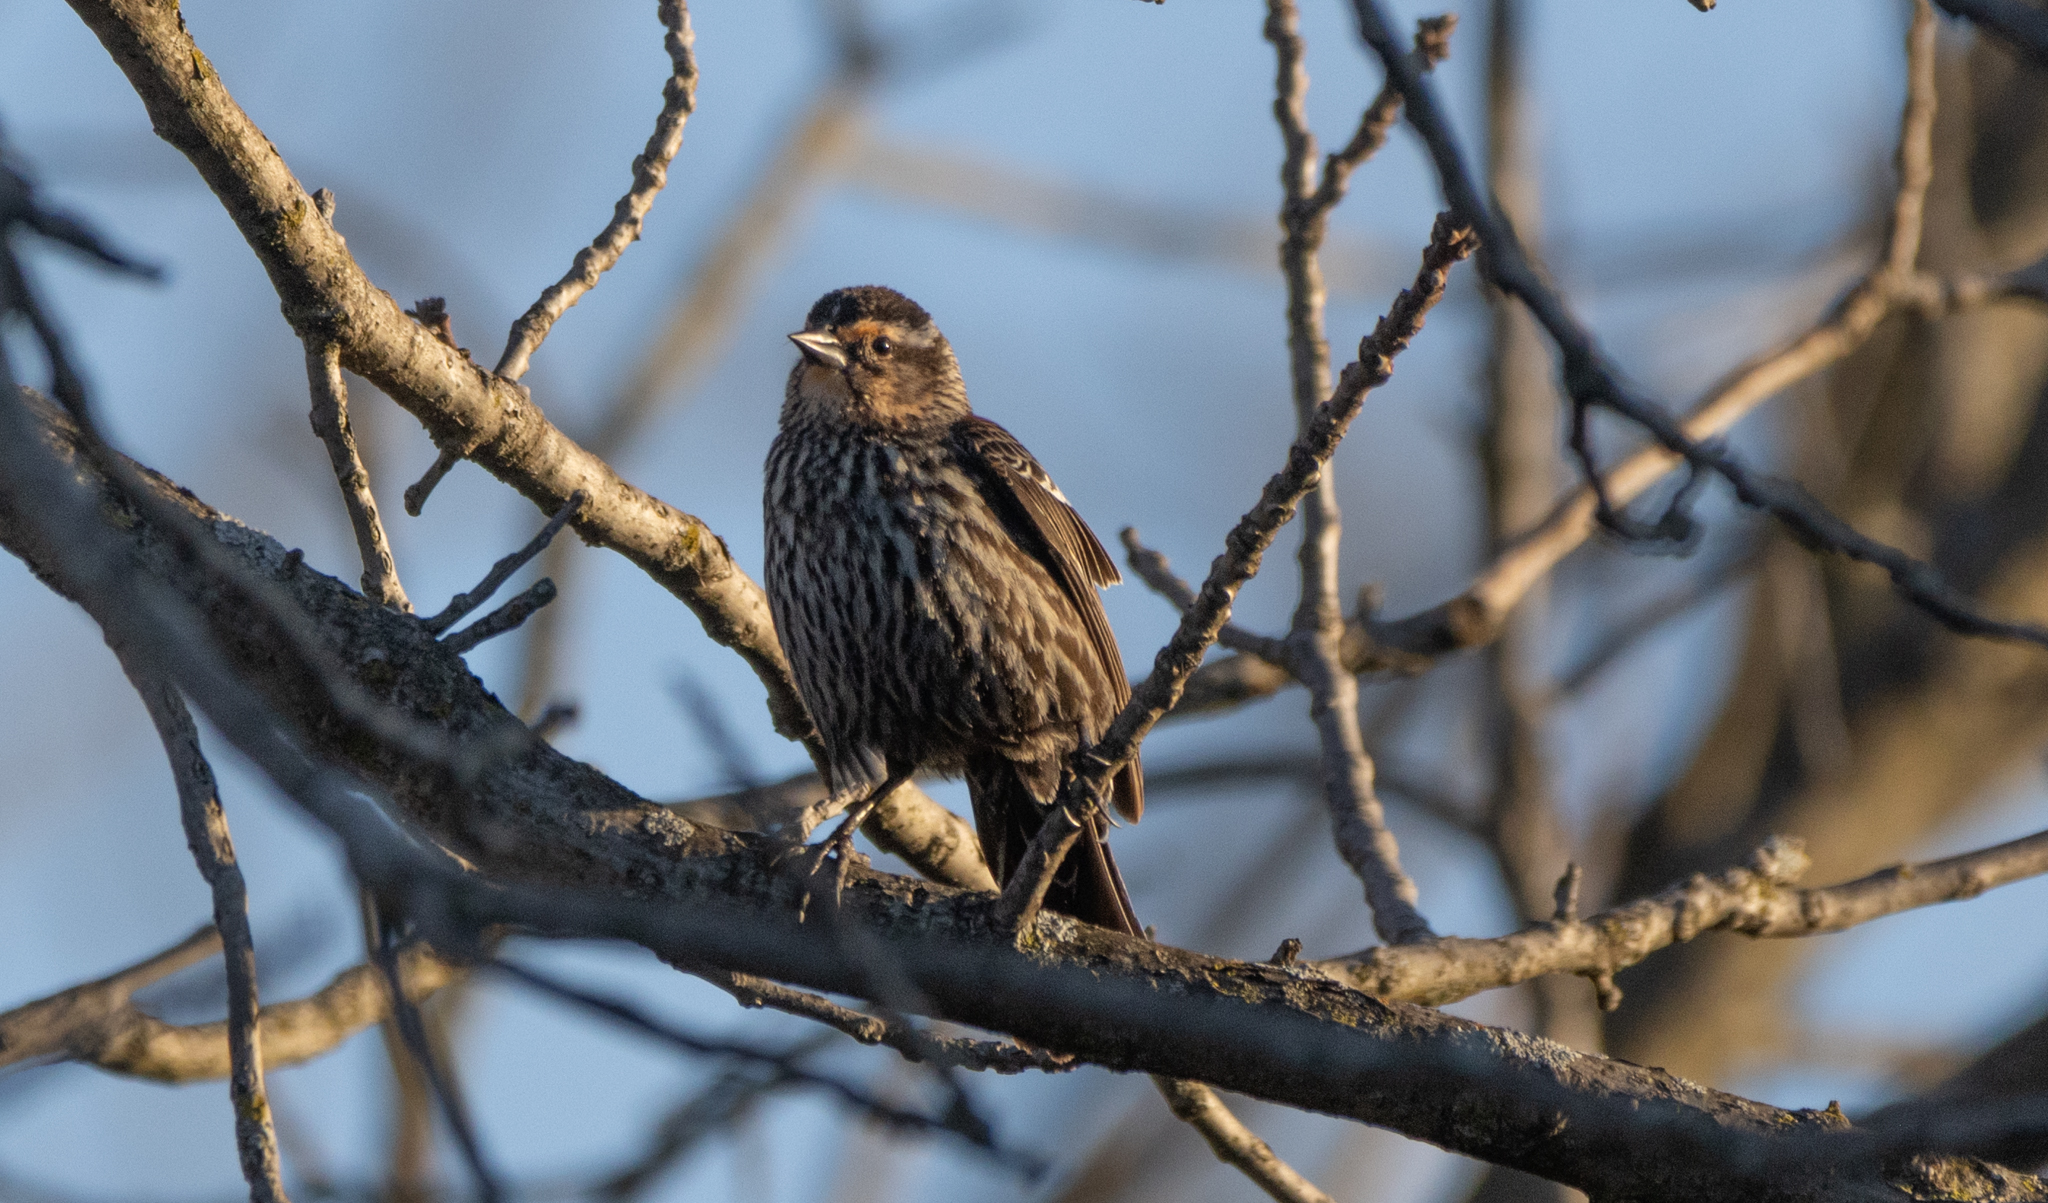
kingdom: Animalia
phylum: Chordata
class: Aves
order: Passeriformes
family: Icteridae
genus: Agelaius
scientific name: Agelaius phoeniceus
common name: Red-winged blackbird
